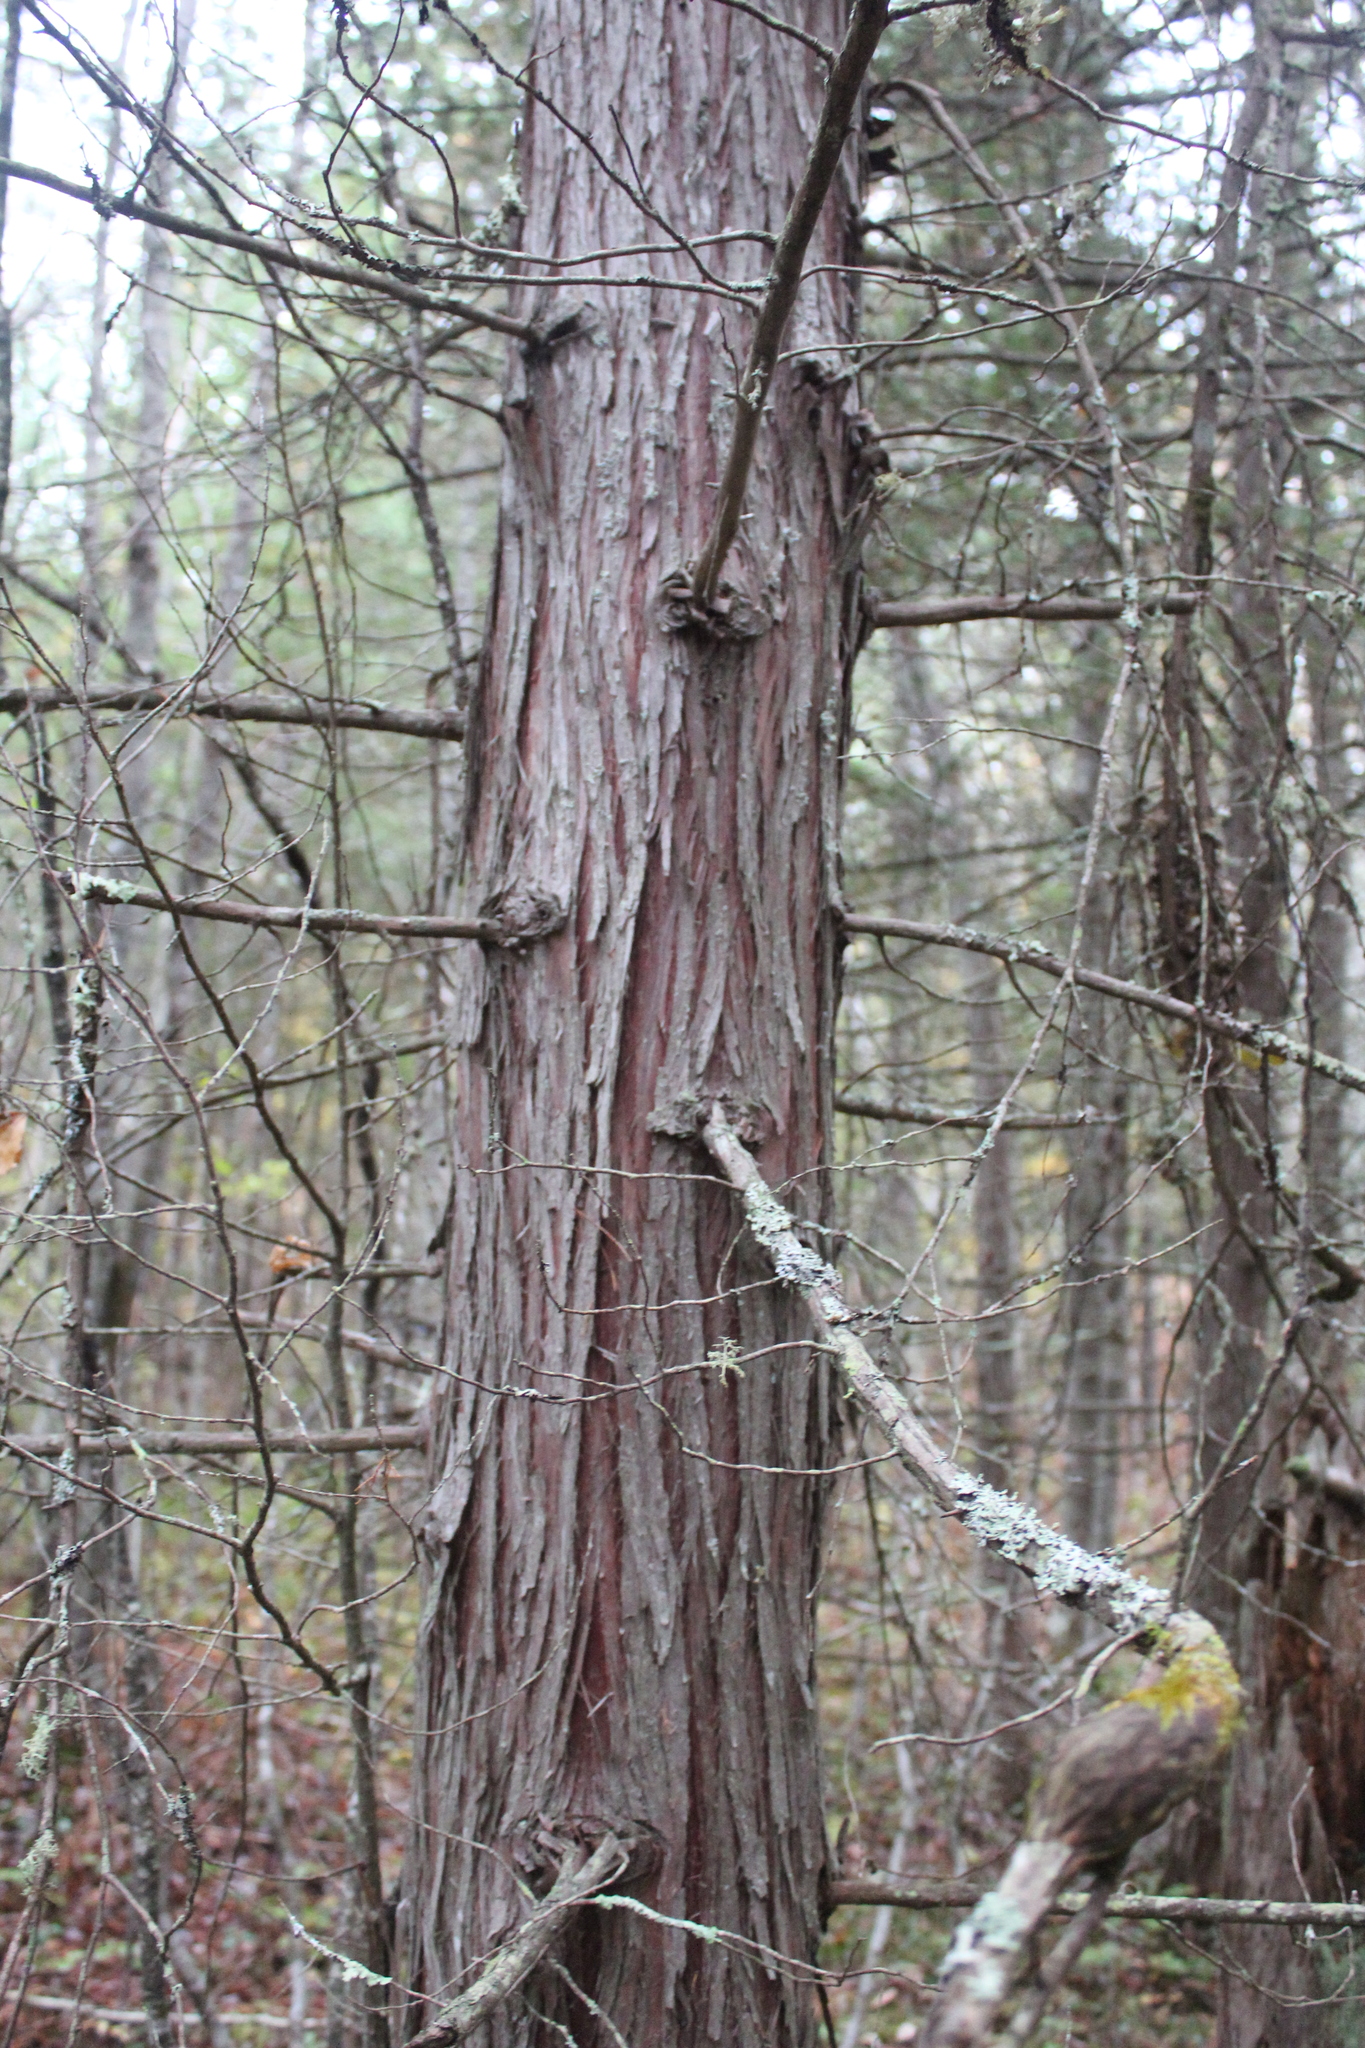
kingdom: Plantae
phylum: Tracheophyta
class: Pinopsida
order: Pinales
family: Cupressaceae
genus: Chamaecyparis
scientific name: Chamaecyparis thyoides
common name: Atlantic white cedar
